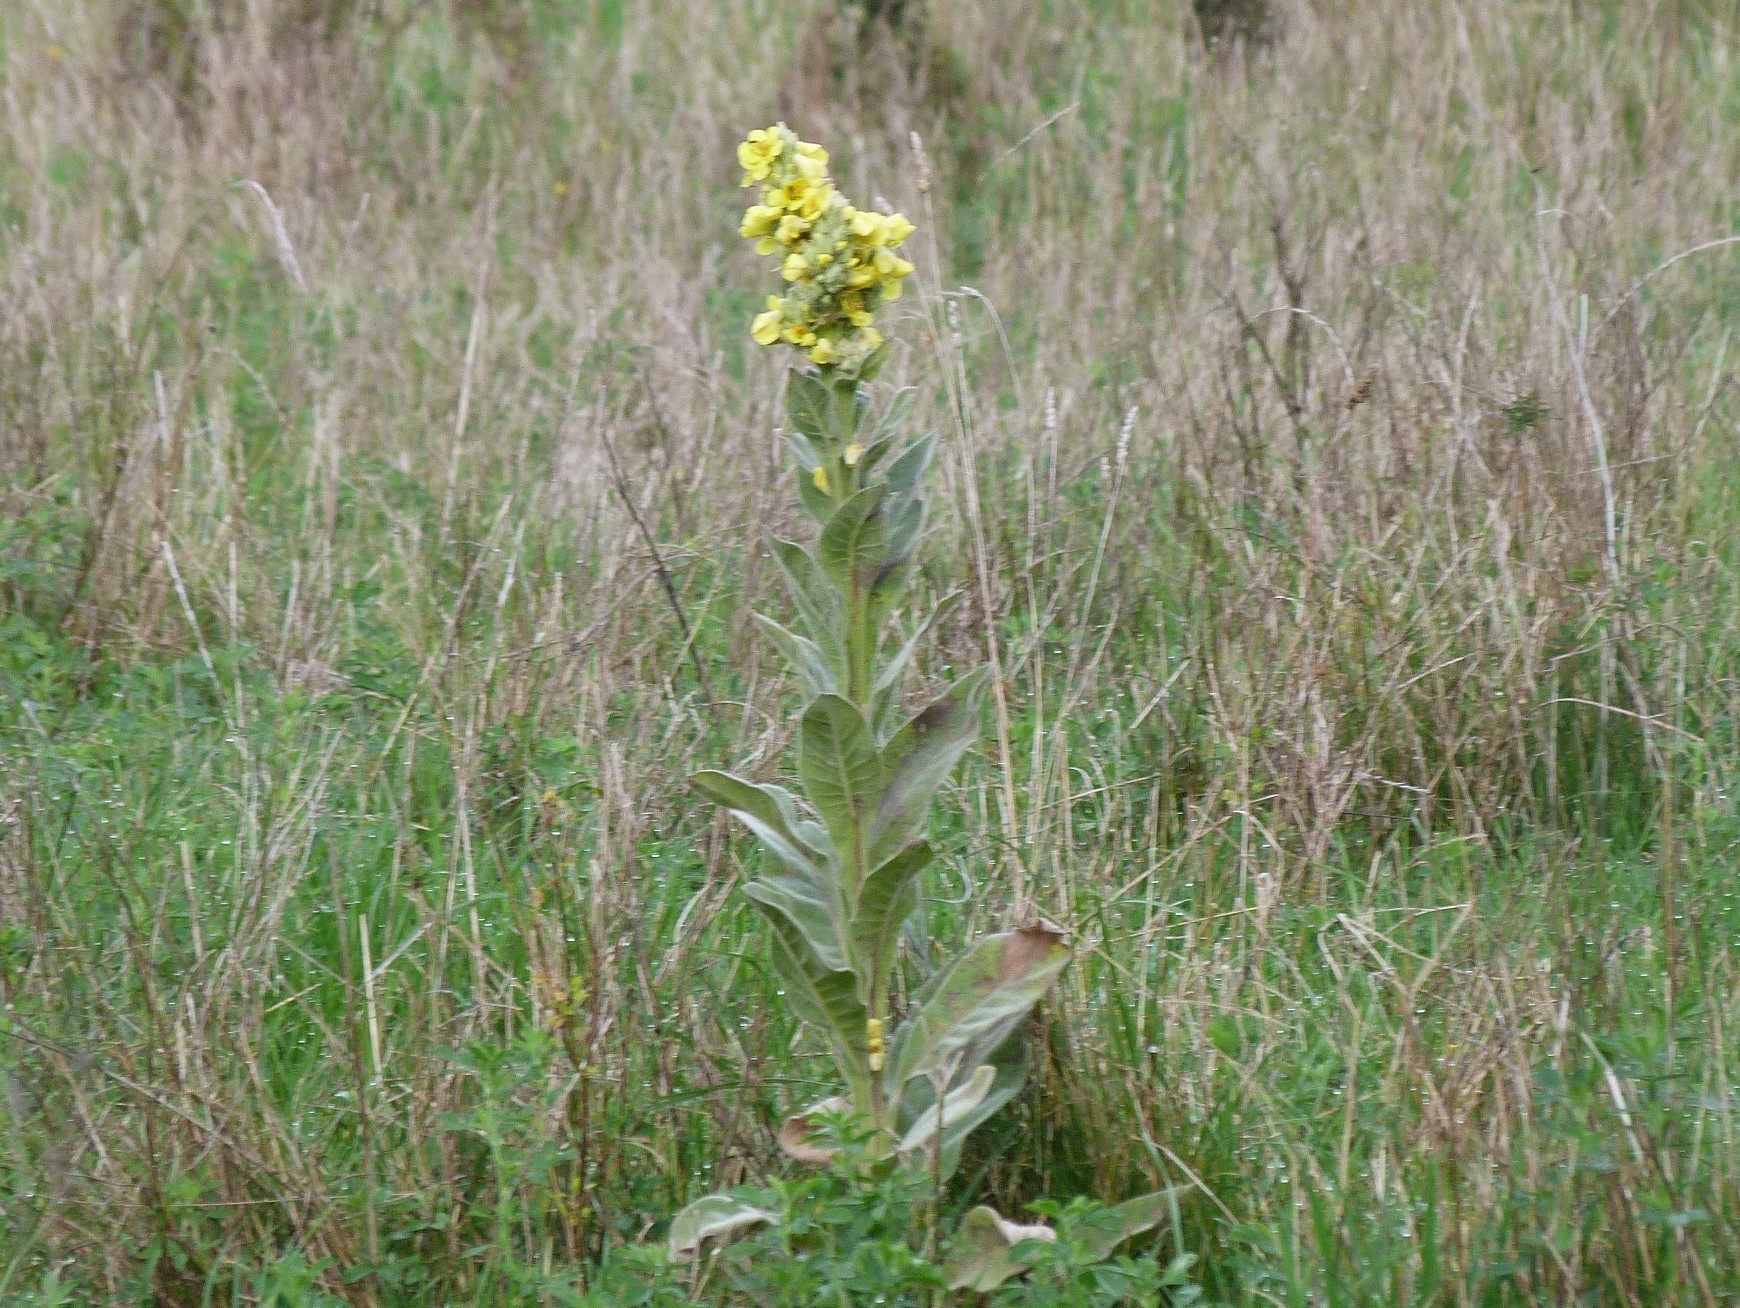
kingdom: Plantae
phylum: Tracheophyta
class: Magnoliopsida
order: Lamiales
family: Scrophulariaceae
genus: Verbascum
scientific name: Verbascum thapsus
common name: Common mullein
